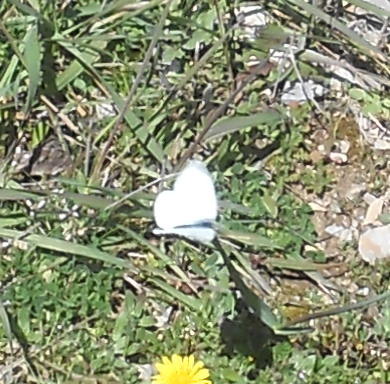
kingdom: Animalia
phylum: Arthropoda
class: Insecta
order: Lepidoptera
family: Pieridae
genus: Pieris
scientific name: Pieris rapae
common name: Small white
